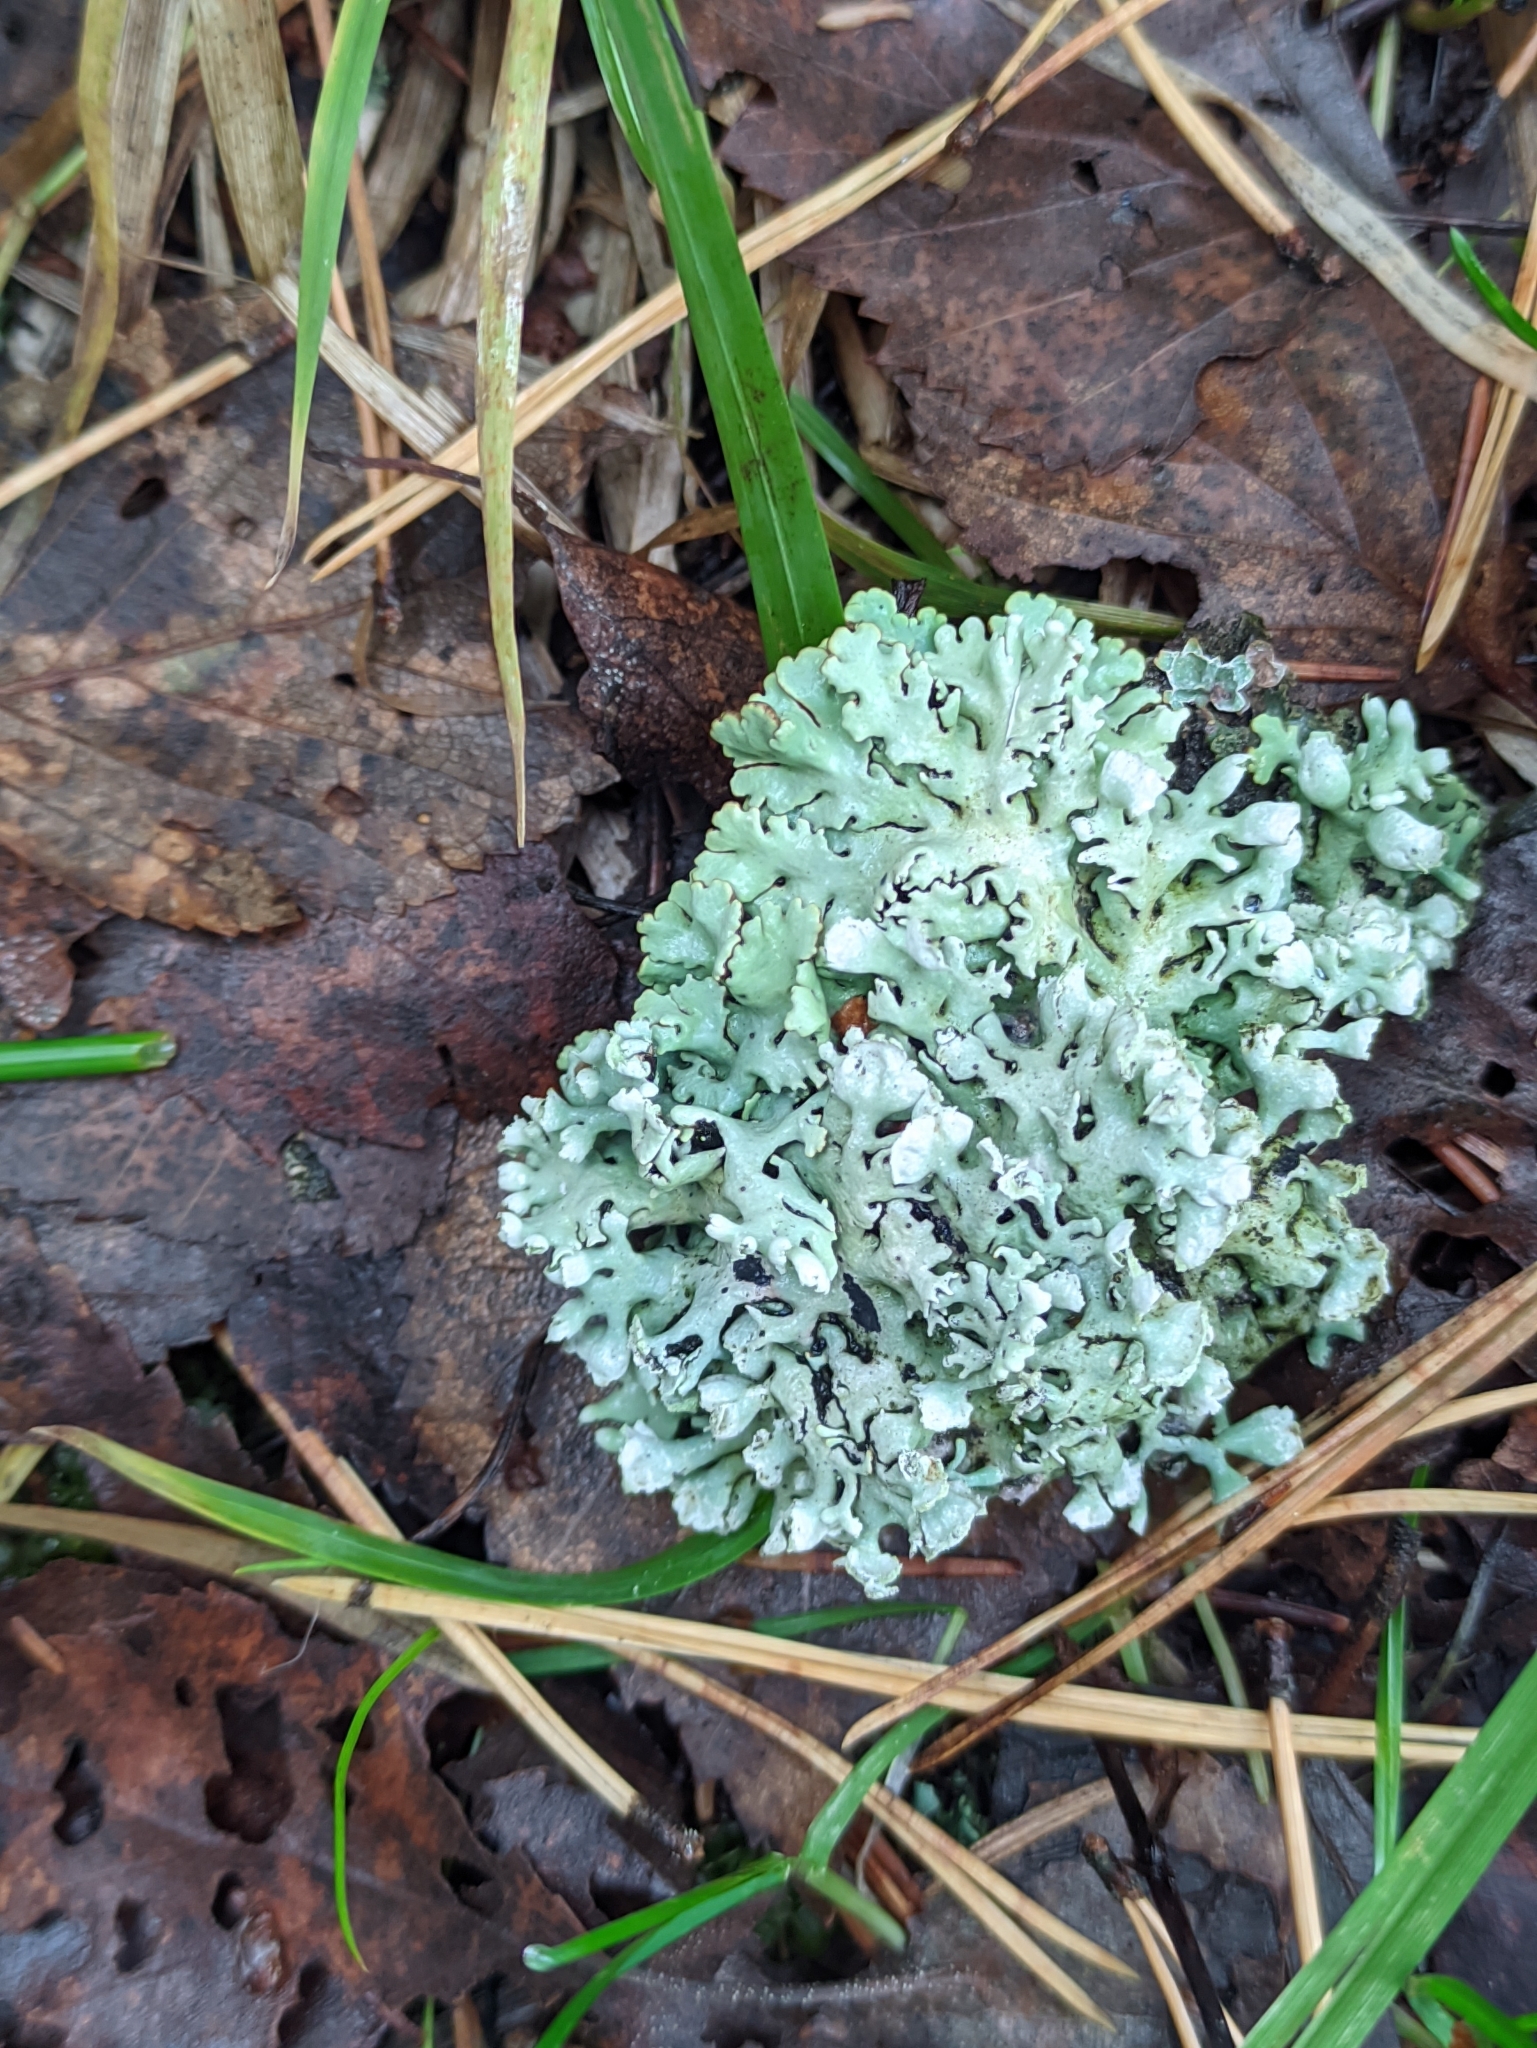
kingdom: Fungi
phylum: Ascomycota
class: Lecanoromycetes
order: Lecanorales
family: Parmeliaceae
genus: Hypogymnia
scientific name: Hypogymnia physodes
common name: Dark crottle
